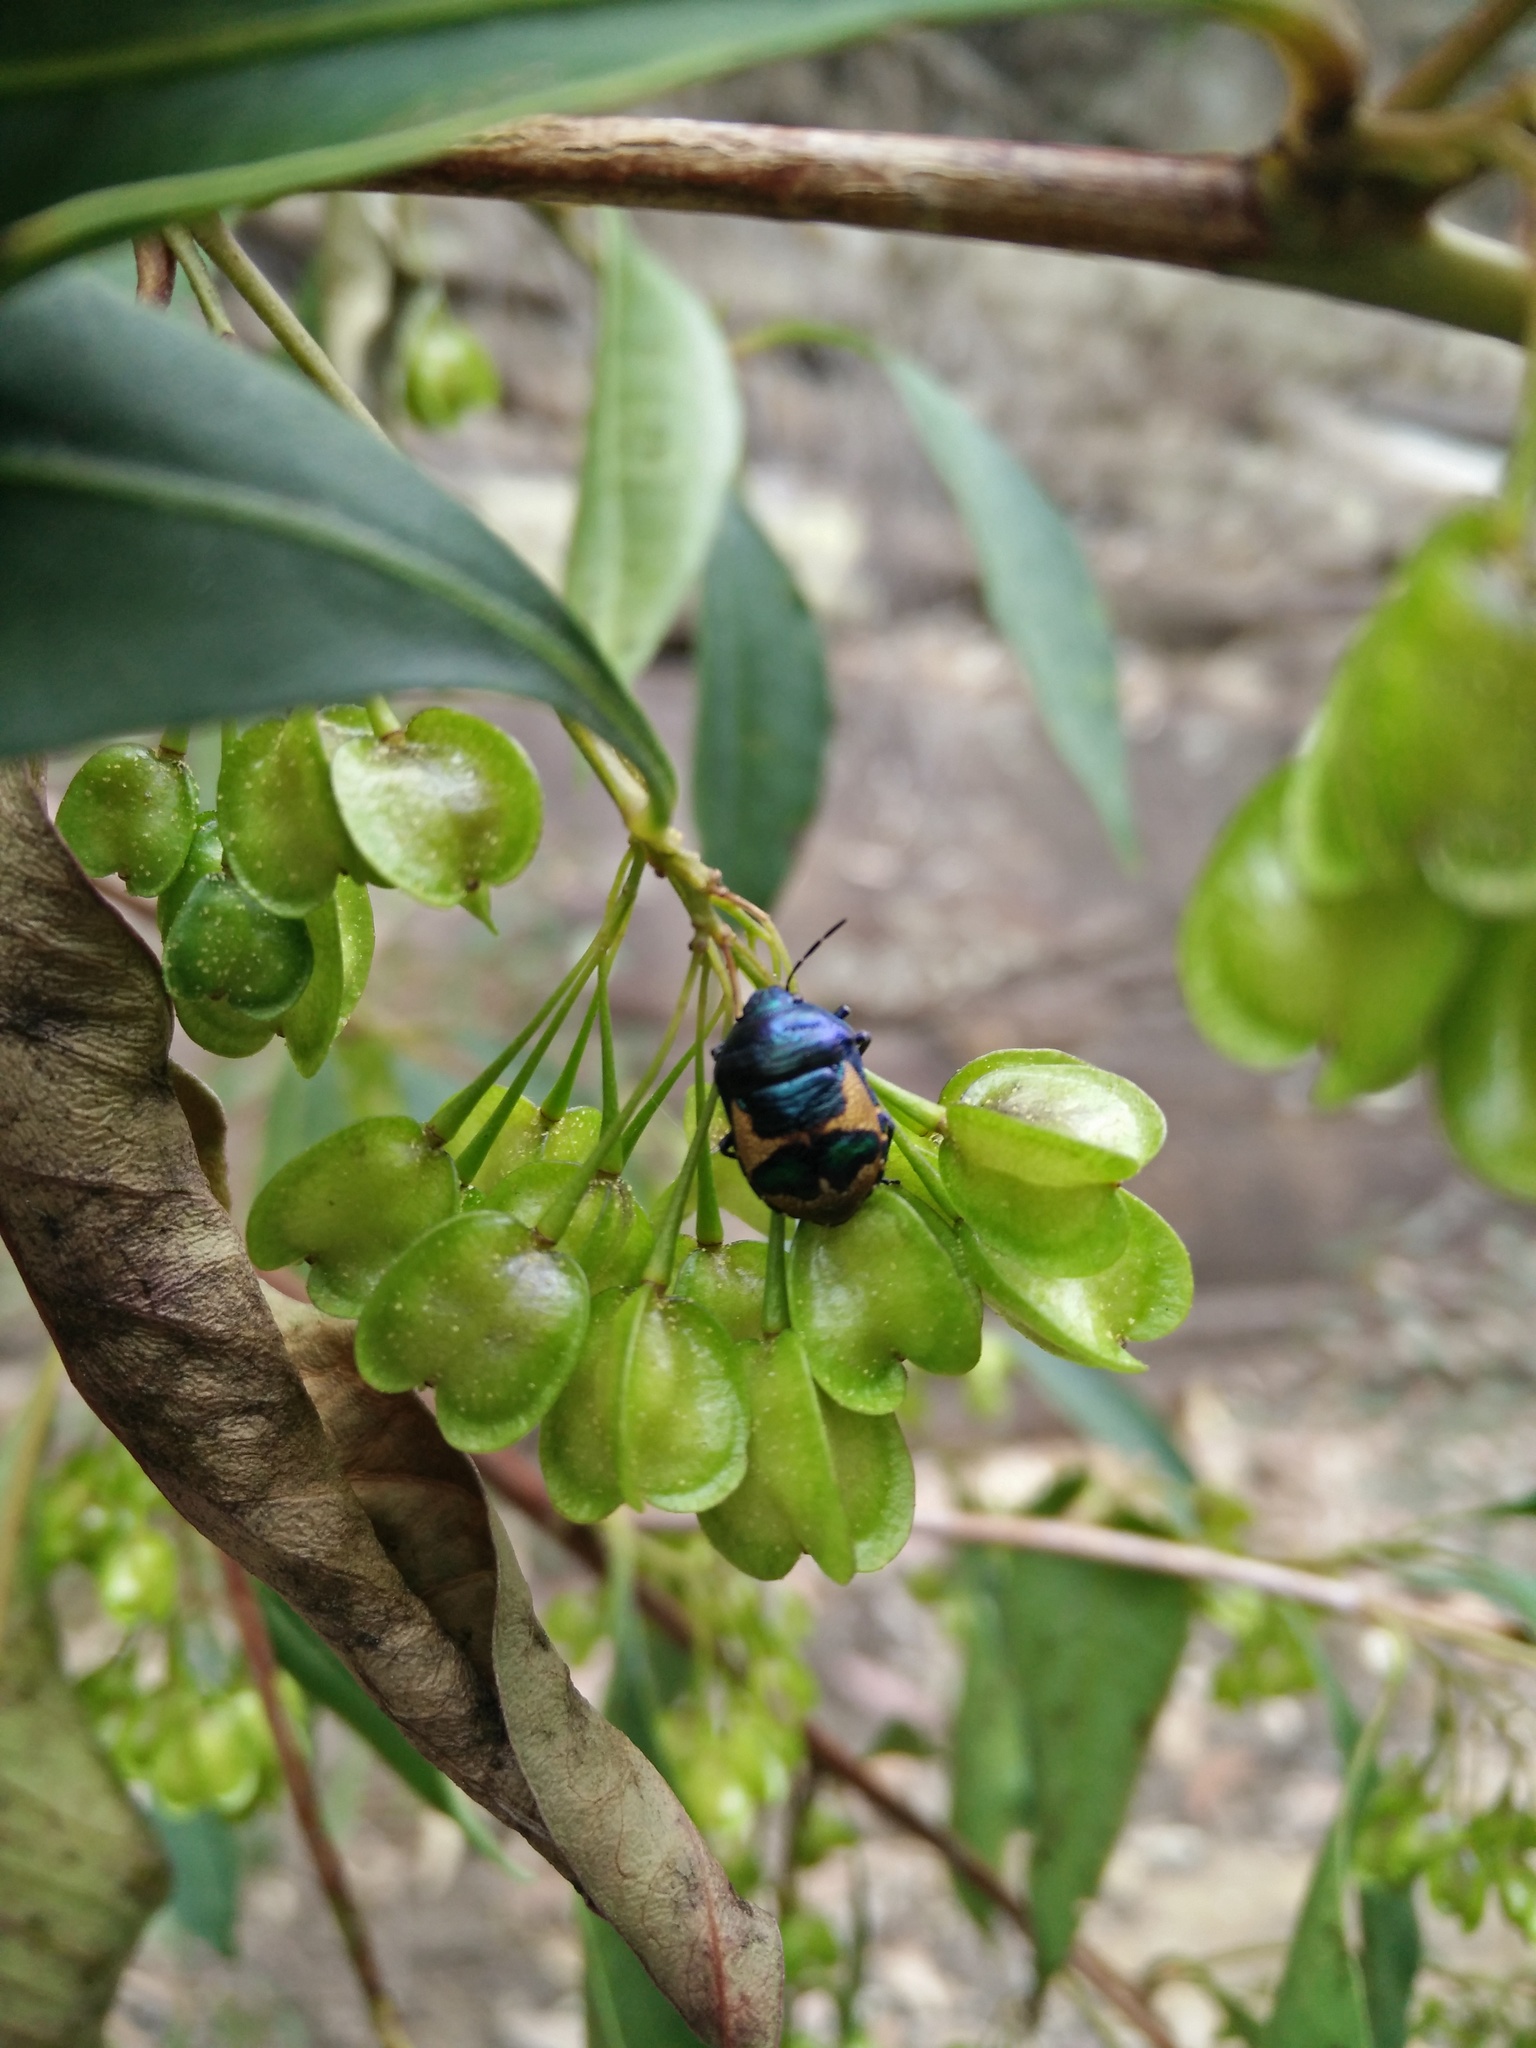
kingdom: Animalia
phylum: Arthropoda
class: Insecta
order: Hemiptera
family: Scutelleridae
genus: Choerocoris
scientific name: Choerocoris paganus
